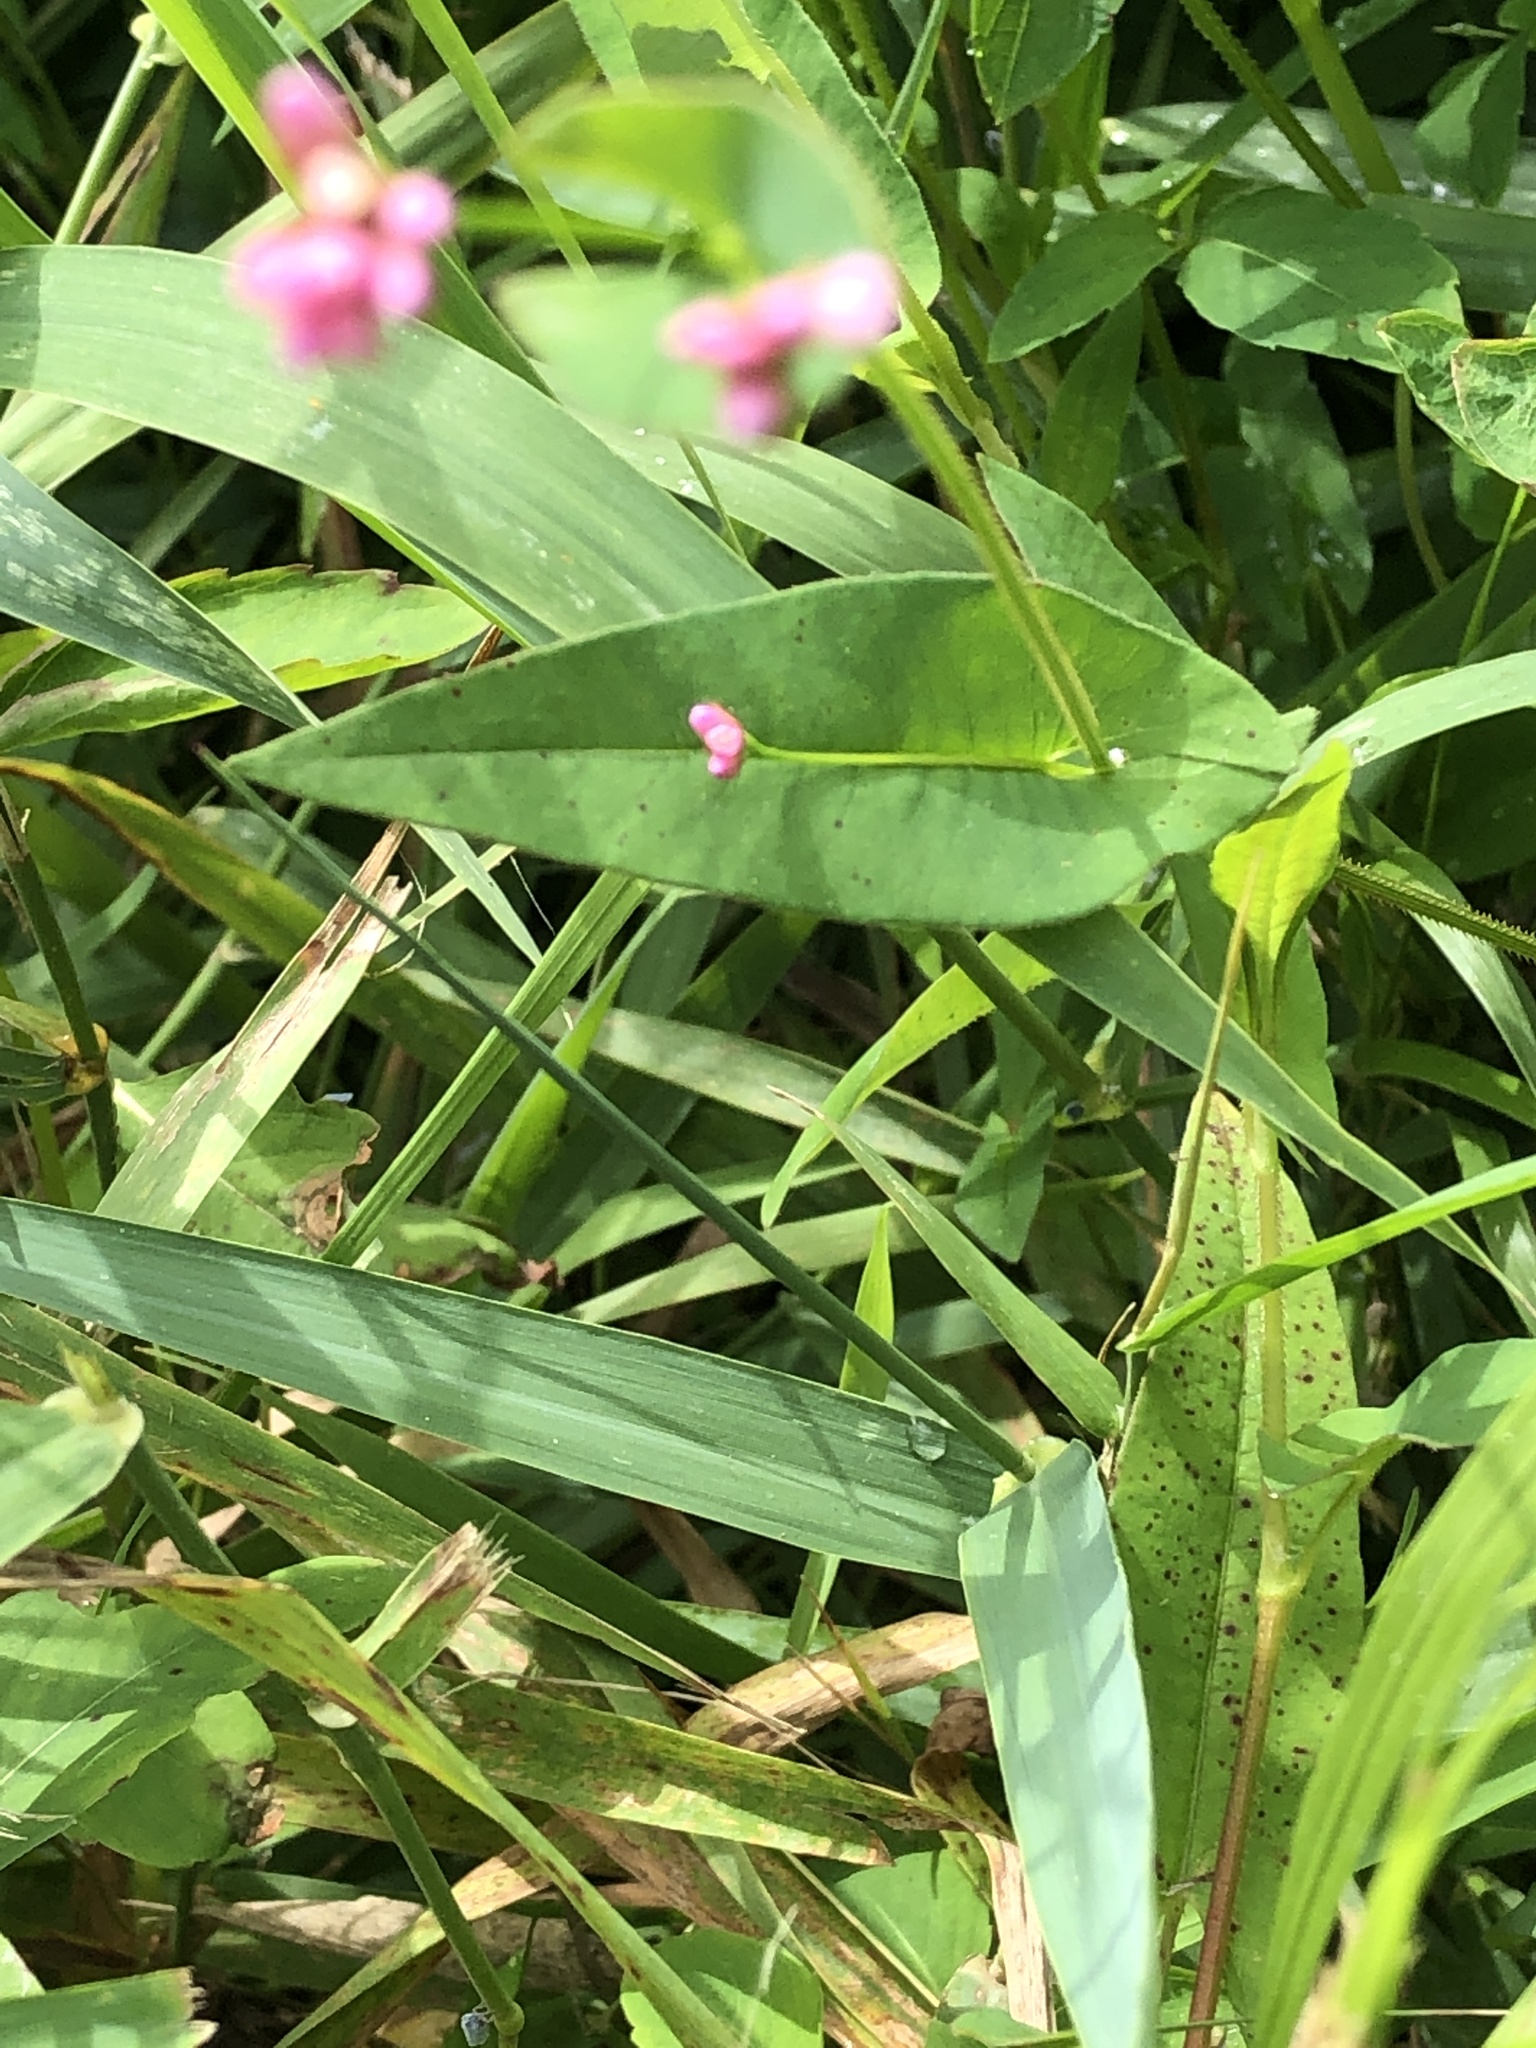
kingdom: Plantae
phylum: Tracheophyta
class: Magnoliopsida
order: Caryophyllales
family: Polygonaceae
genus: Persicaria
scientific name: Persicaria sagittata
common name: American tearthumb
